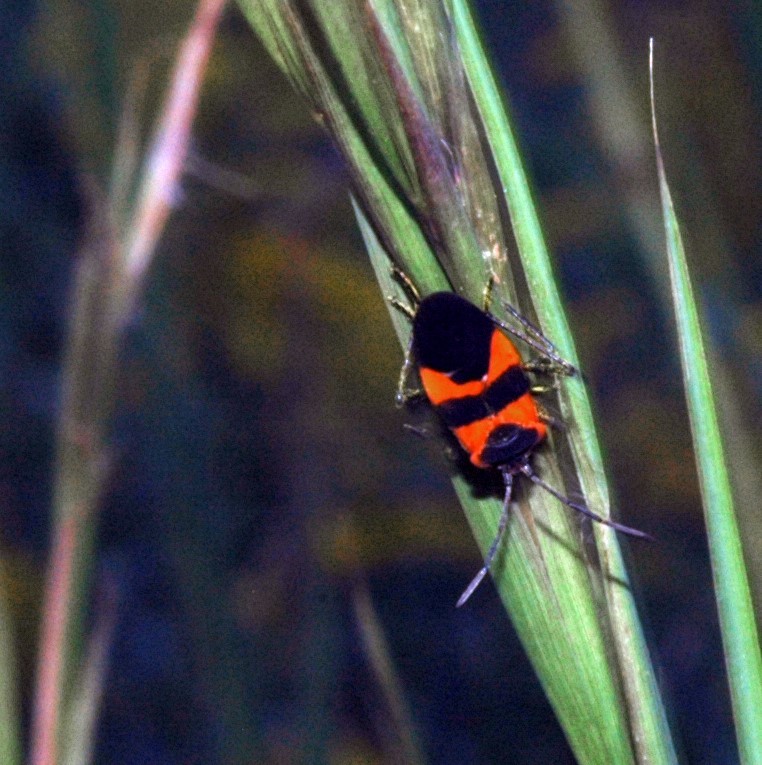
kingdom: Animalia
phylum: Arthropoda
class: Insecta
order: Hemiptera
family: Lygaeidae
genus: Oncopeltus
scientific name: Oncopeltus fasciatus
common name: Large milkweed bug
